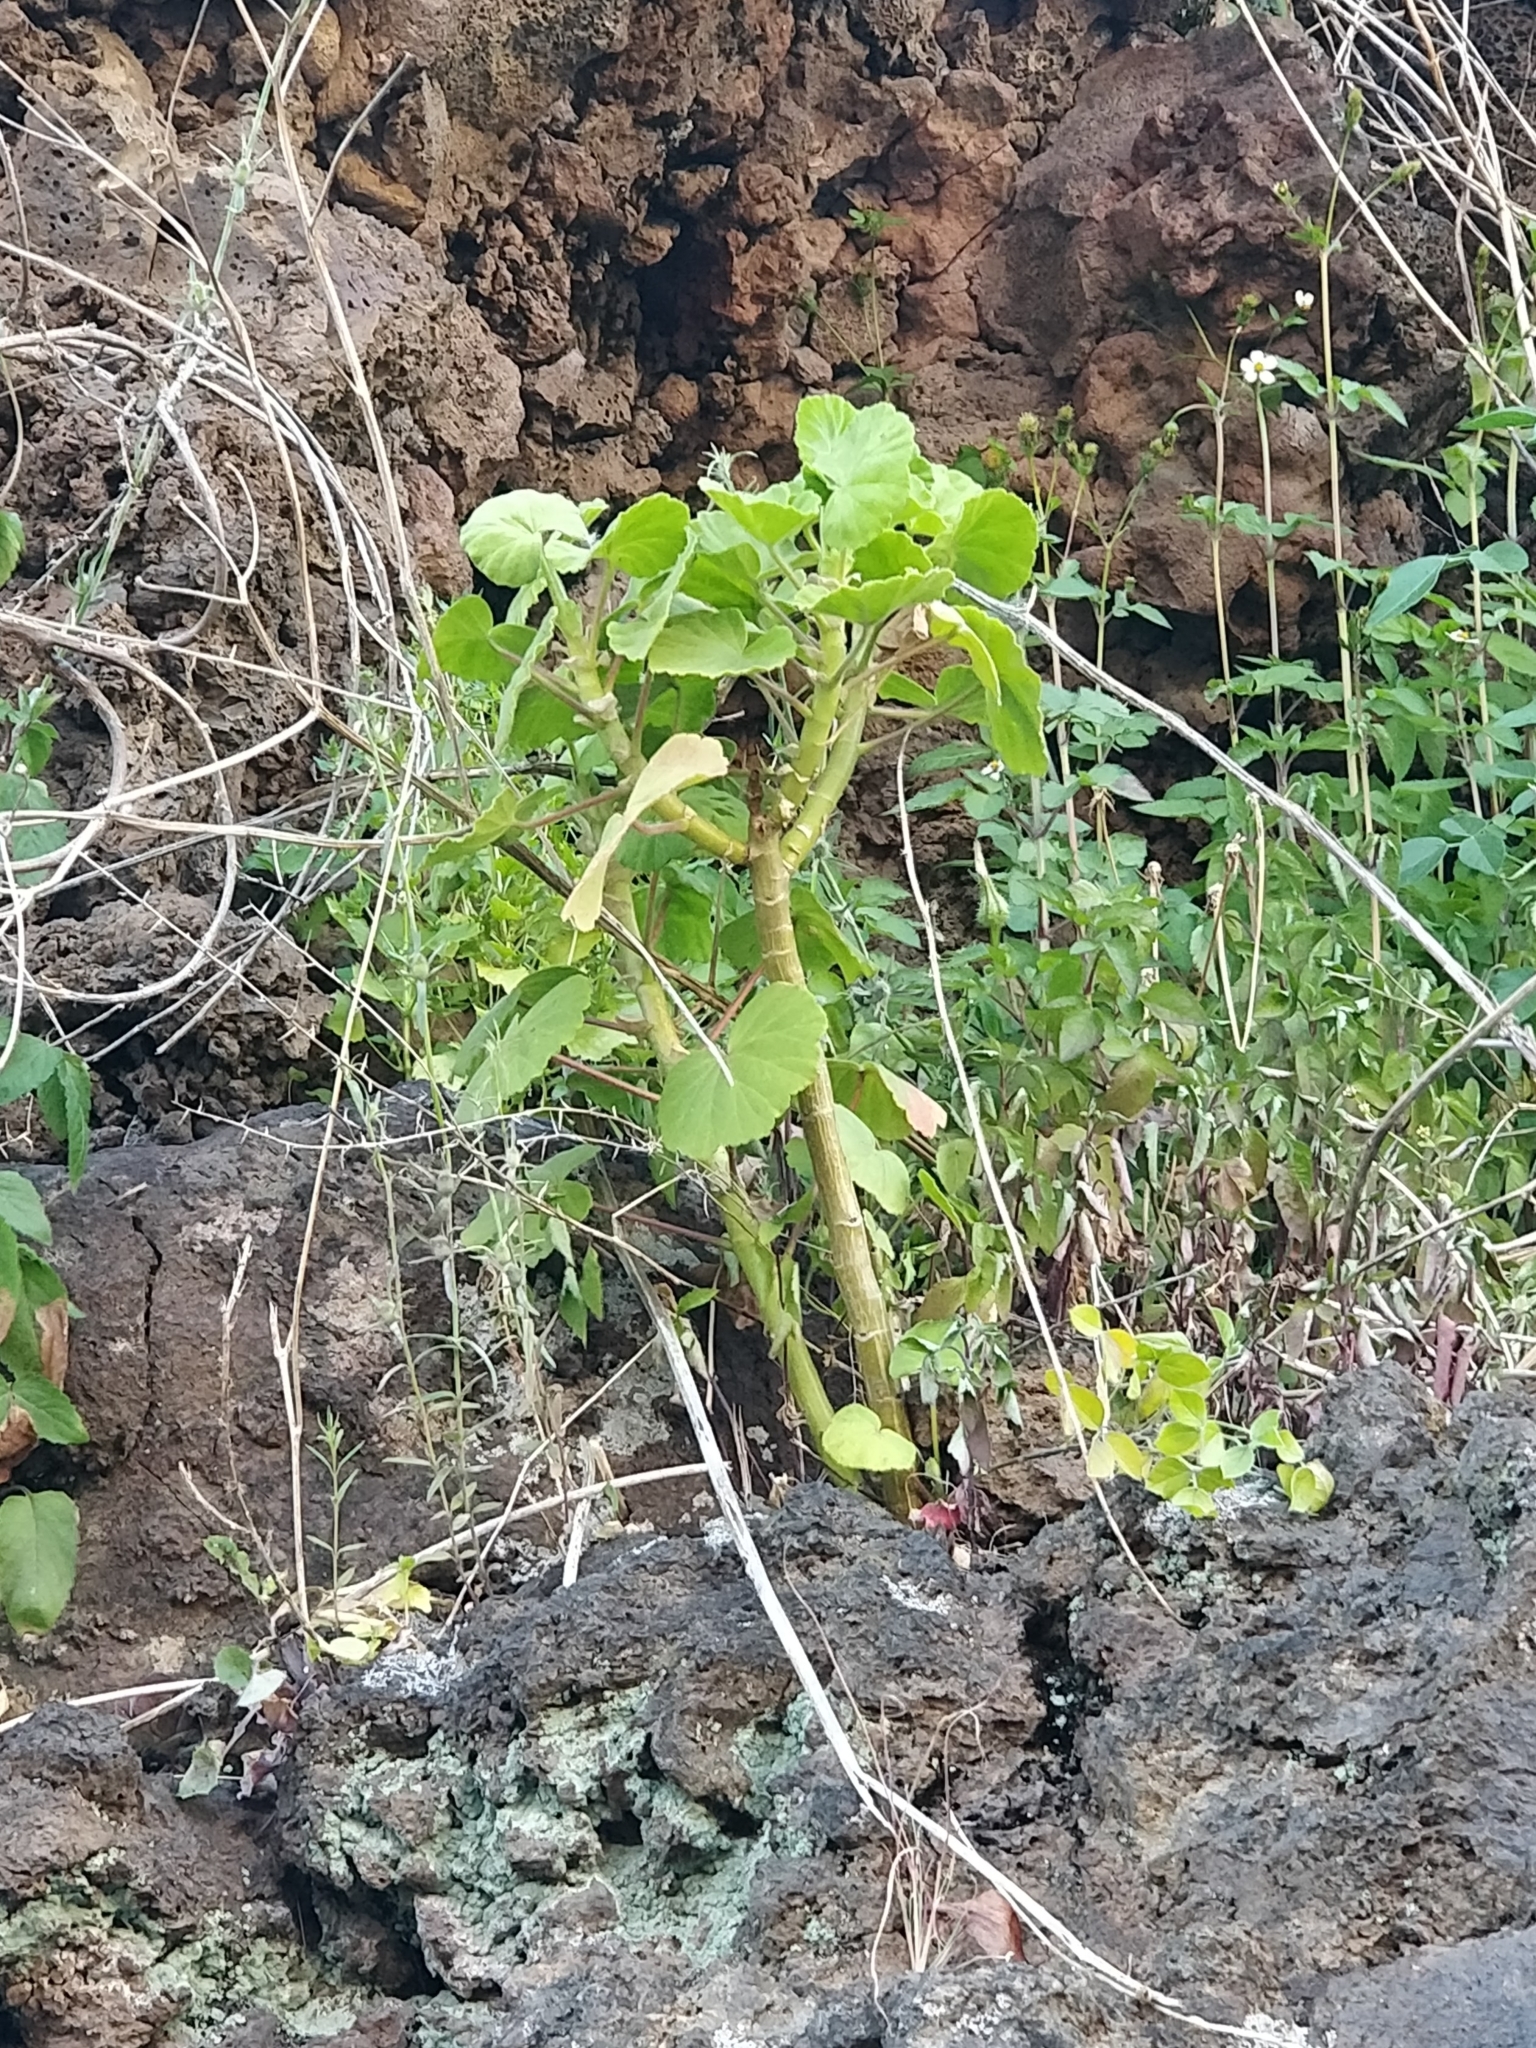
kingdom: Plantae
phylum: Tracheophyta
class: Magnoliopsida
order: Geraniales
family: Geraniaceae
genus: Pelargonium
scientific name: Pelargonium hybridum
